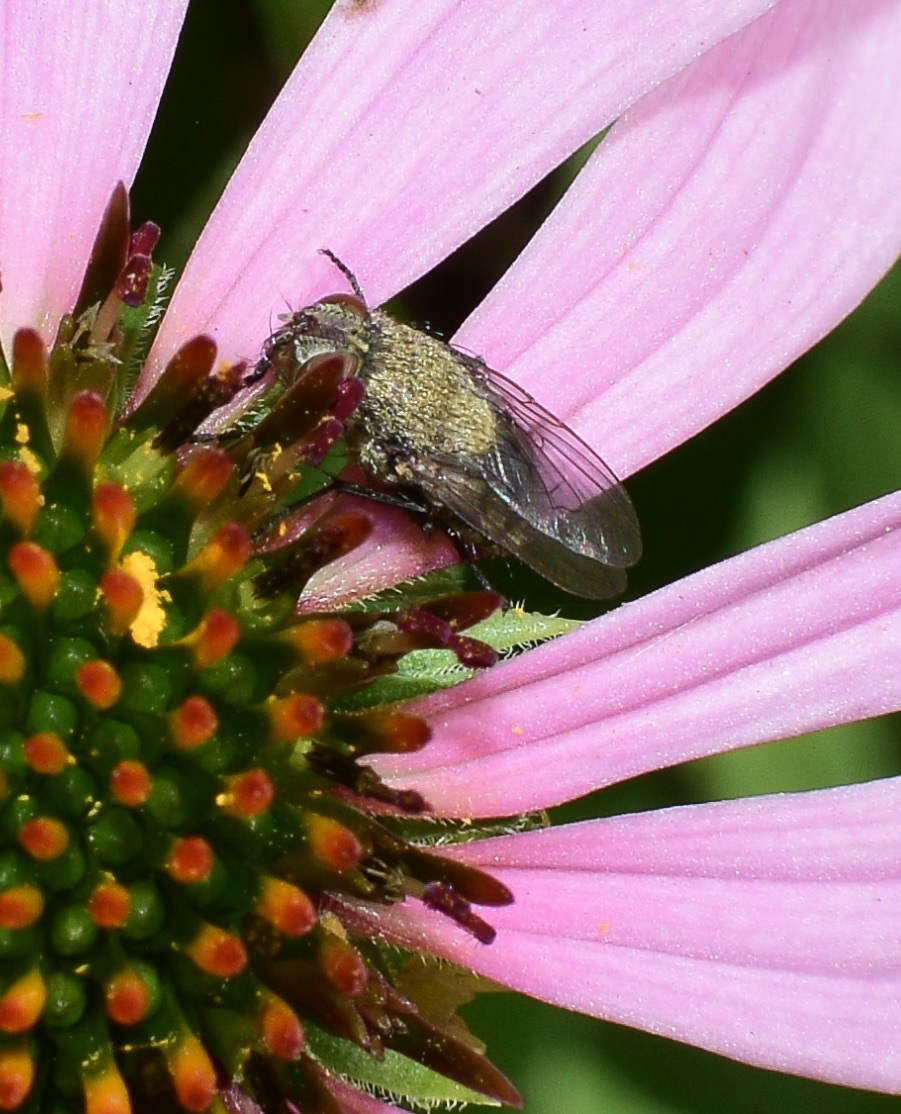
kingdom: Animalia
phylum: Arthropoda
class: Insecta
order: Diptera
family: Polleniidae
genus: Pollenia
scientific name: Pollenia
